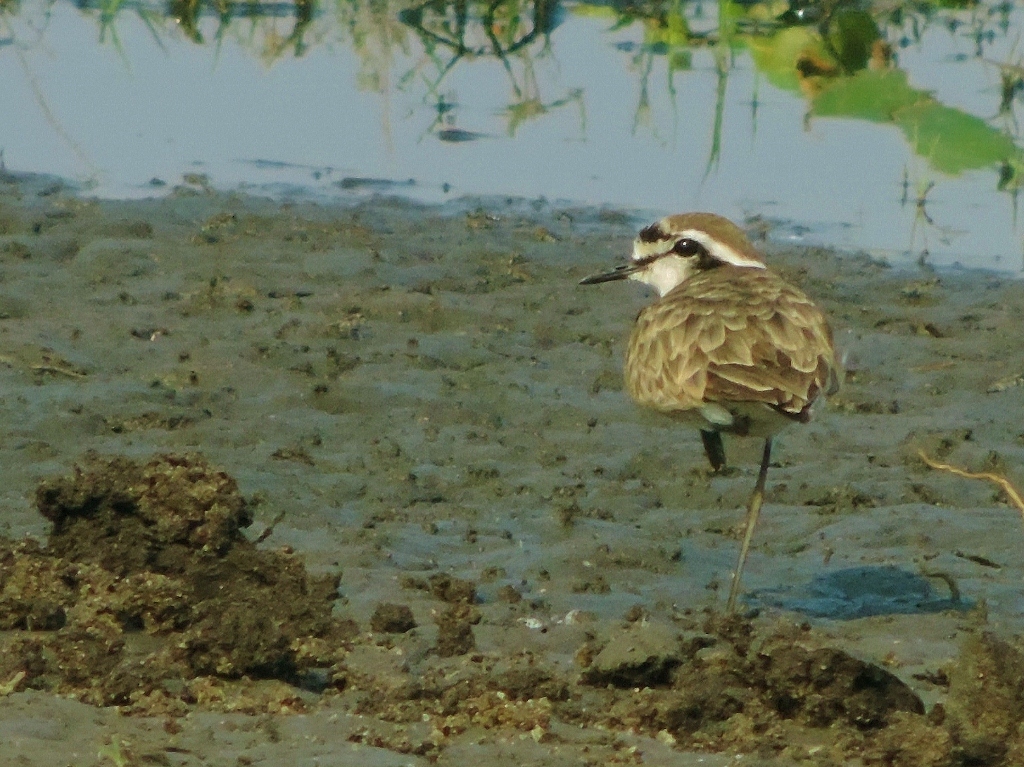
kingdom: Animalia
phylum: Chordata
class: Aves
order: Charadriiformes
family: Charadriidae
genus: Anarhynchus
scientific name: Anarhynchus
